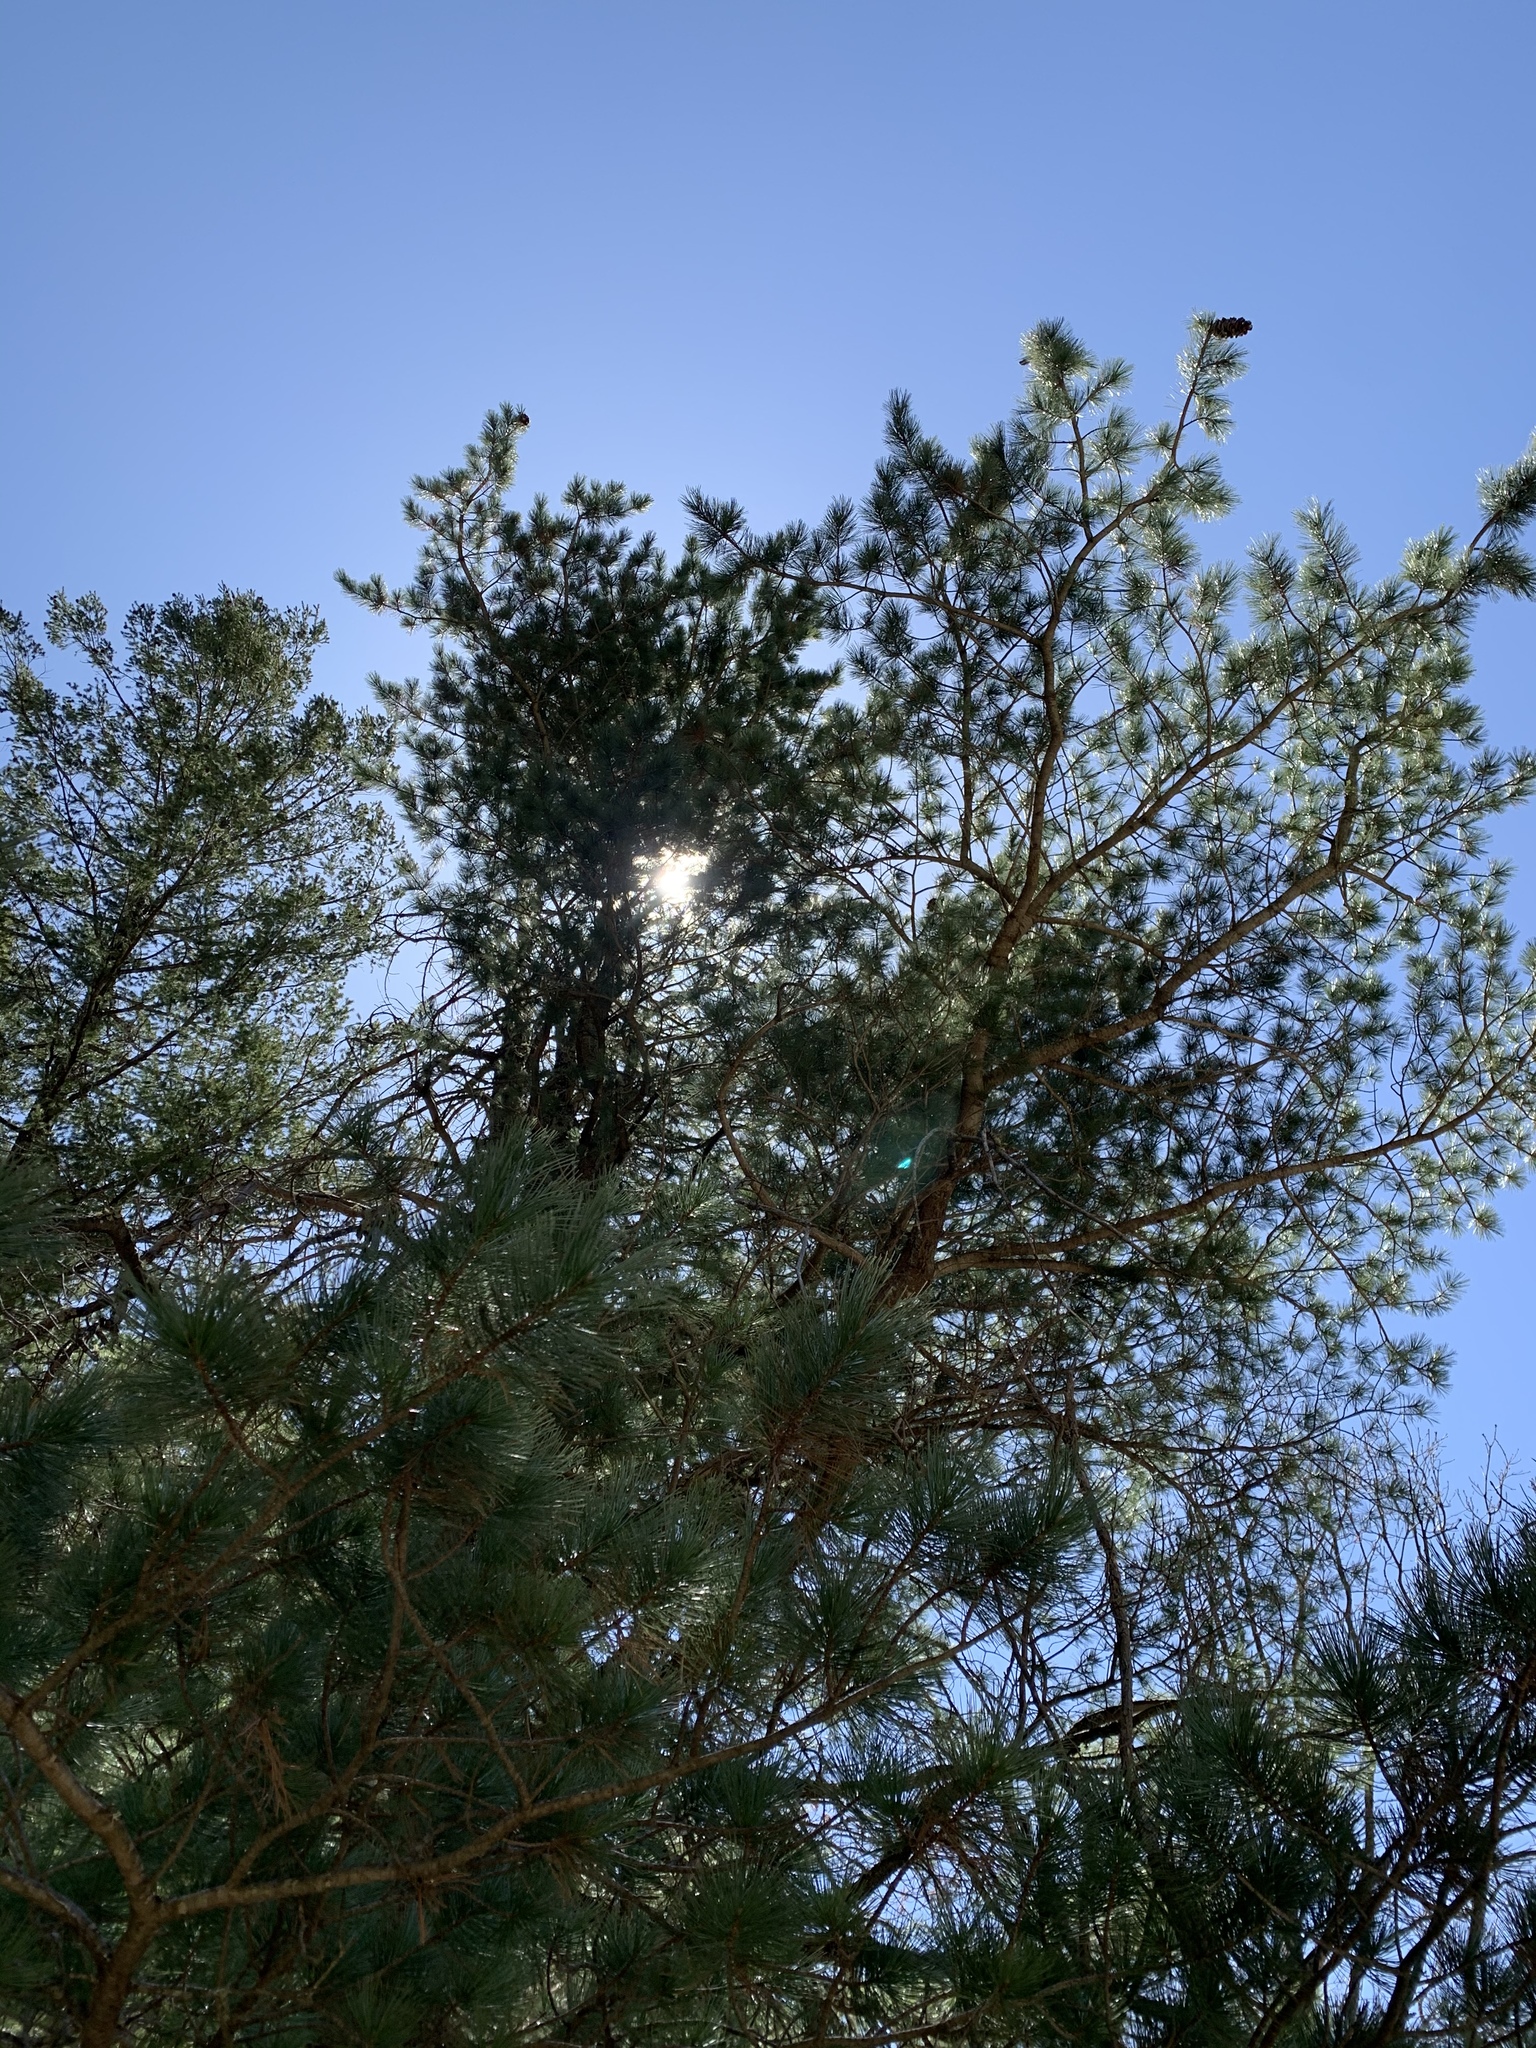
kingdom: Plantae
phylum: Tracheophyta
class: Pinopsida
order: Pinales
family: Pinaceae
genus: Pinus
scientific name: Pinus strobiformis
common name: Southwestern white pine
